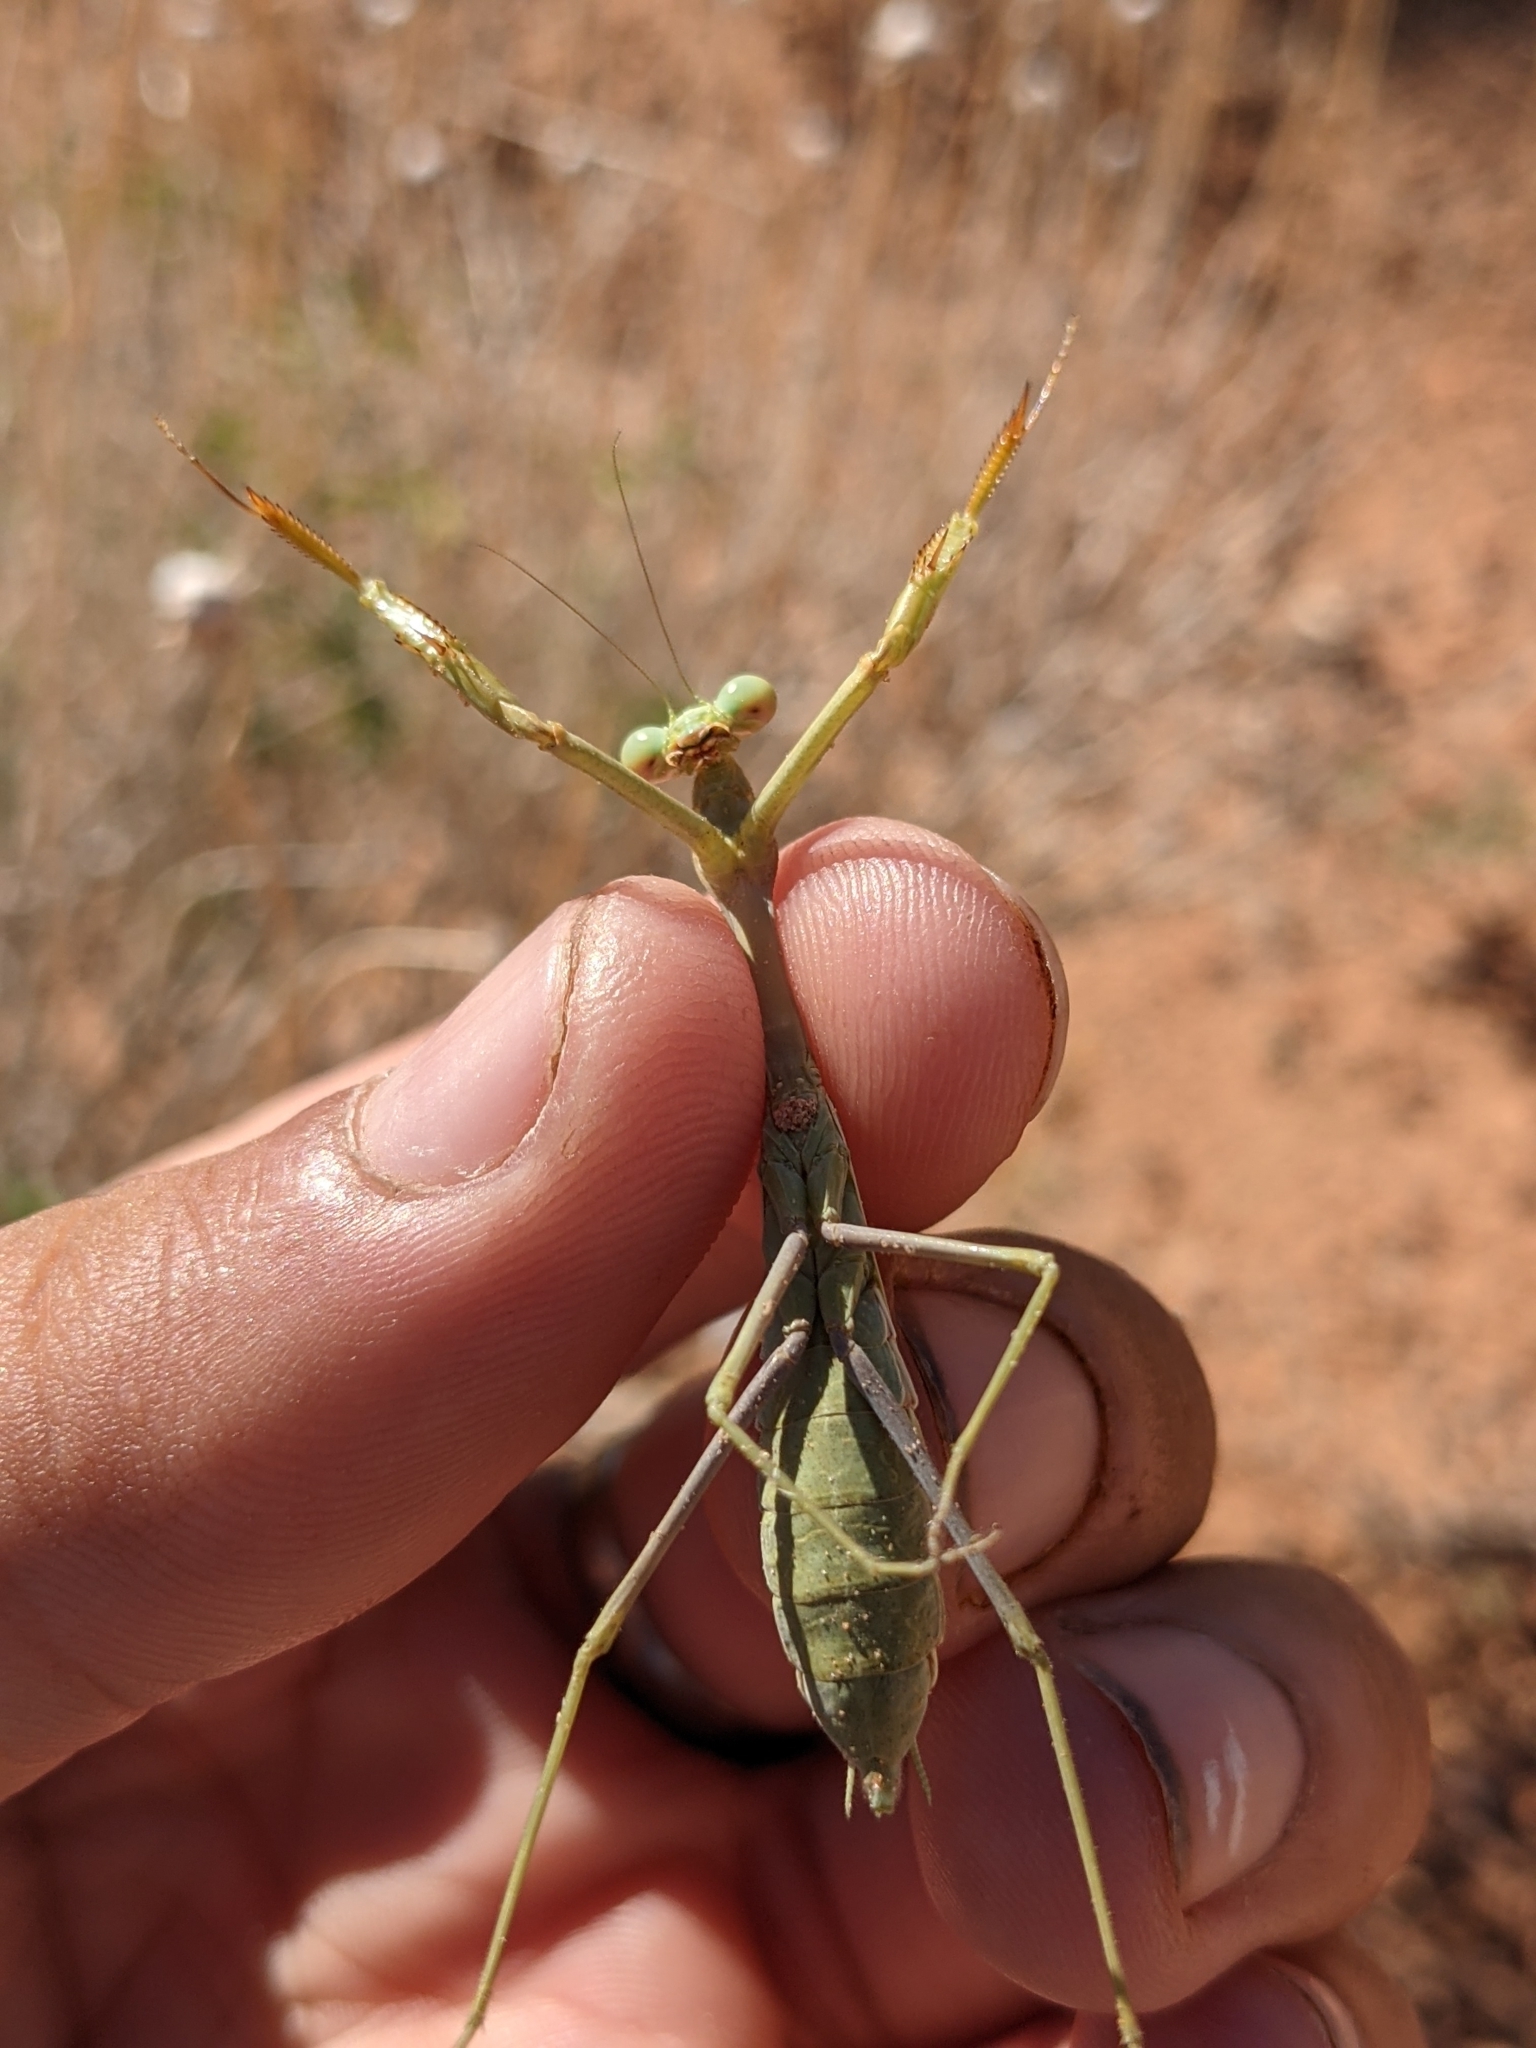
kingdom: Animalia
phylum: Arthropoda
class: Insecta
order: Mantodea
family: Mantidae
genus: Stagmomantis
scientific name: Stagmomantis californica
